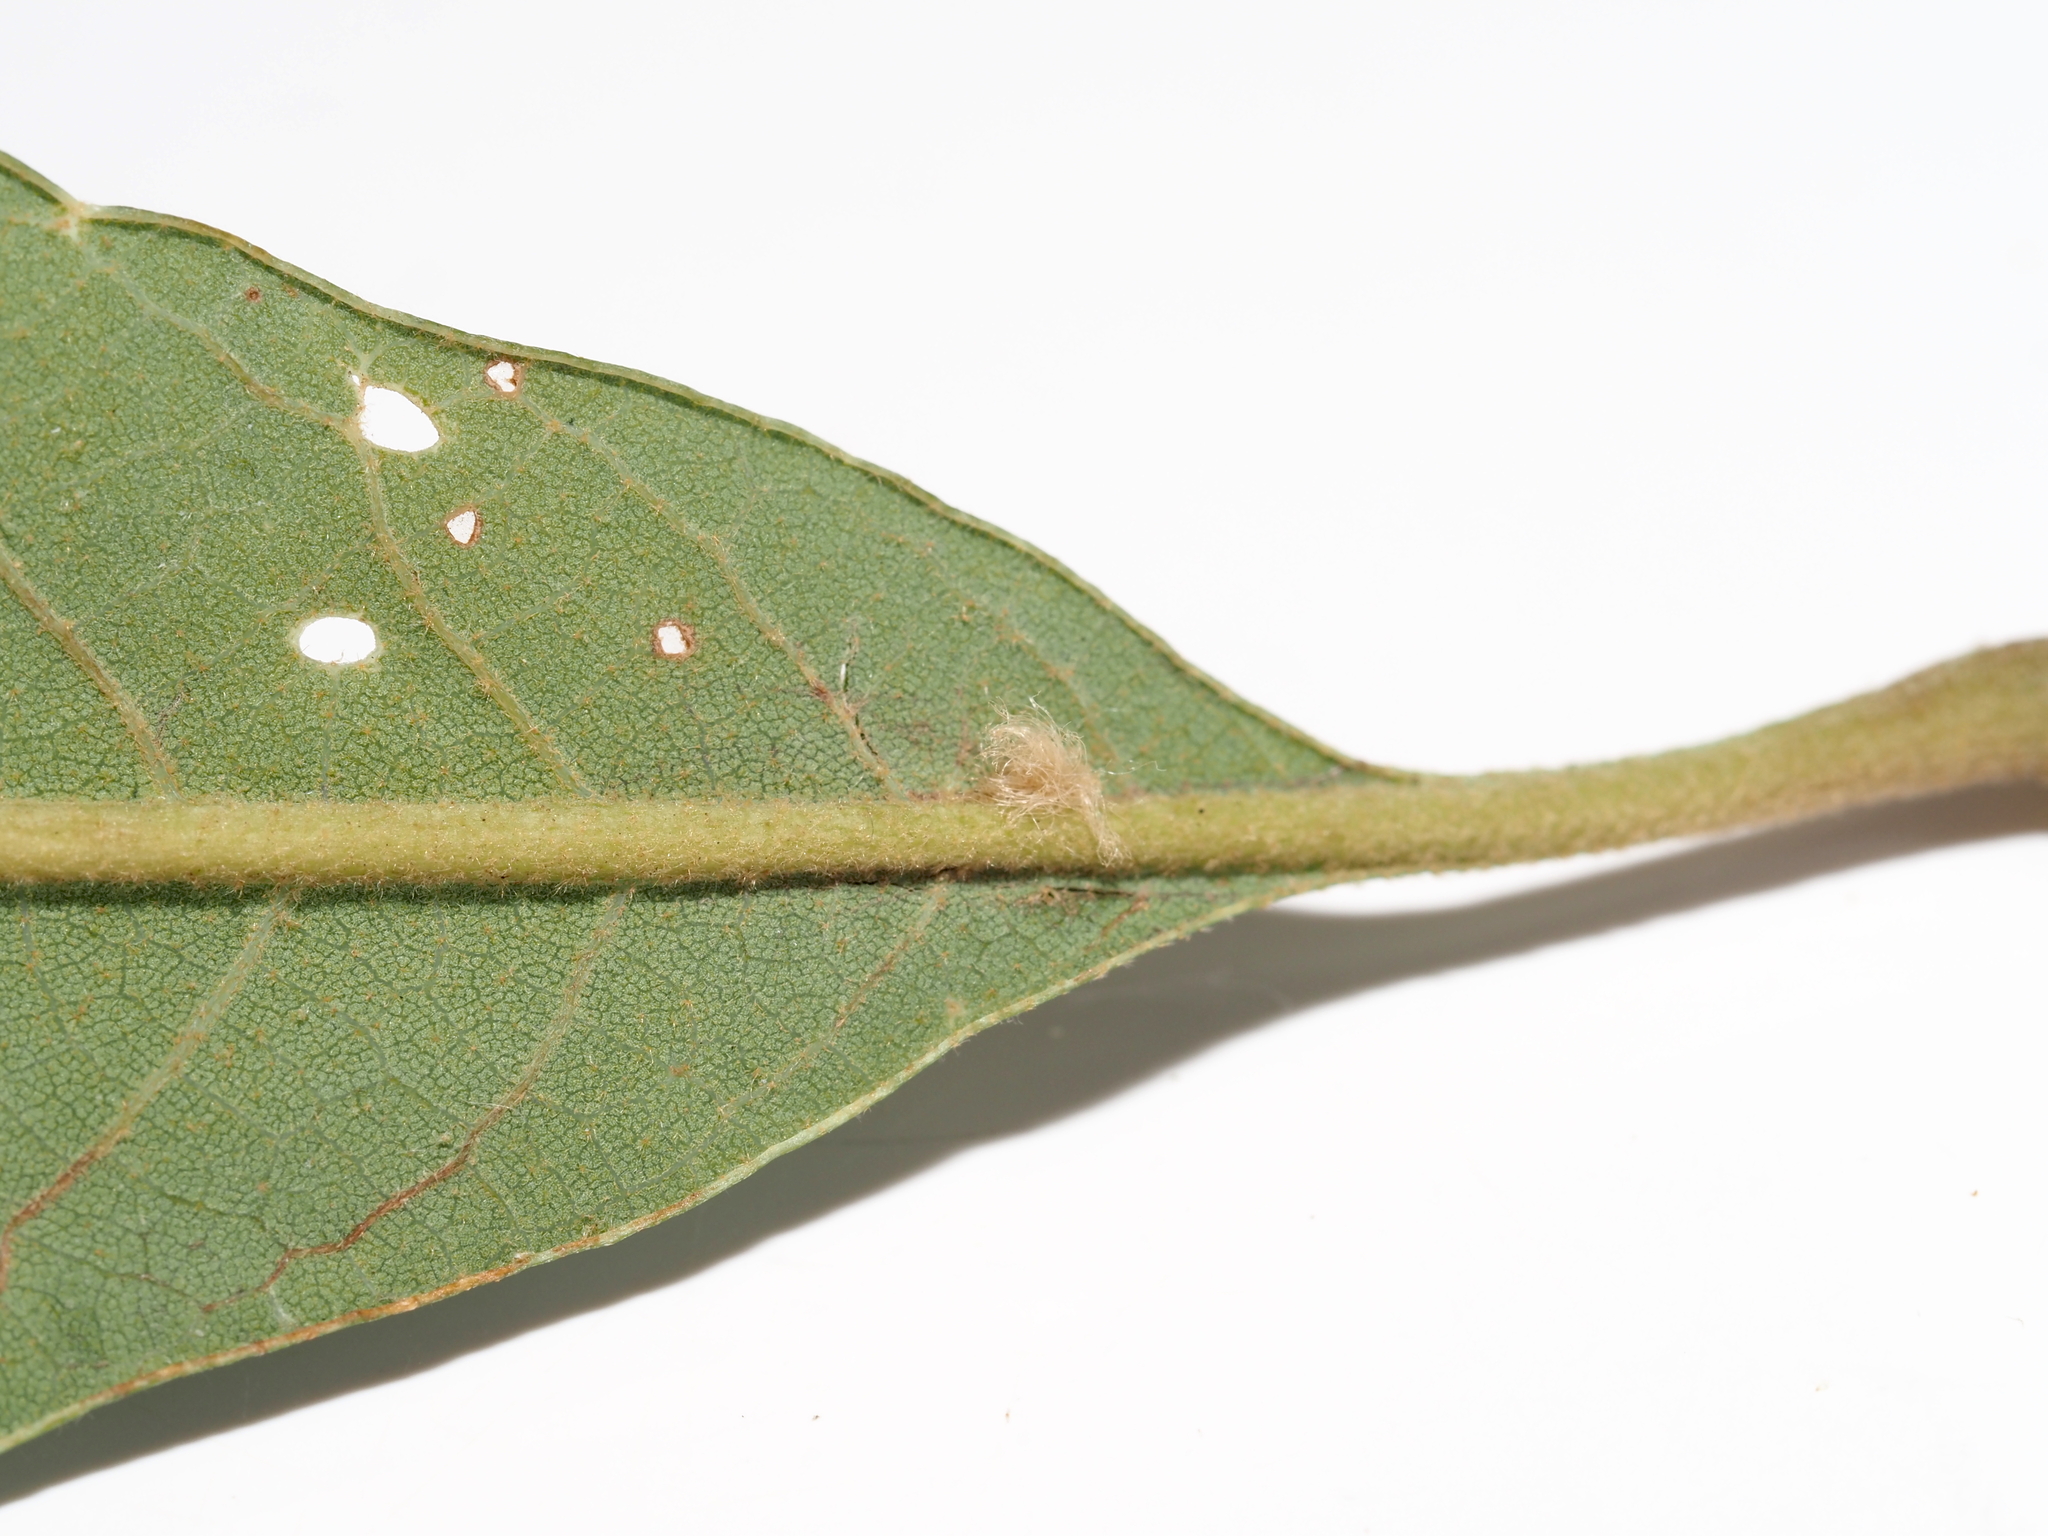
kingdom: Animalia
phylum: Arthropoda
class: Insecta
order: Hymenoptera
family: Cynipidae
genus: Andricus
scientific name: Andricus Druon pattoni
